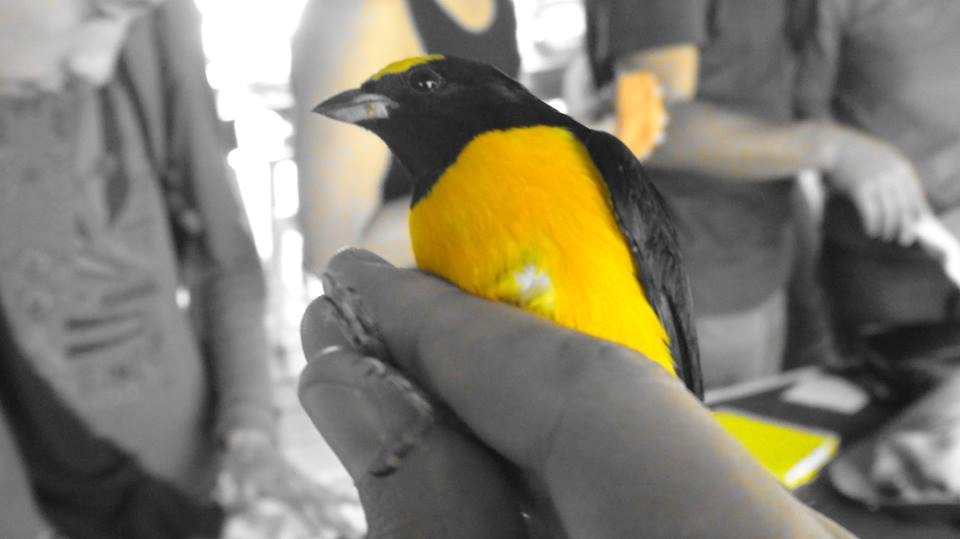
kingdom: Animalia
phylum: Chordata
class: Aves
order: Passeriformes
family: Fringillidae
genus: Euphonia
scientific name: Euphonia xanthogaster
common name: Orange-bellied euphonia
